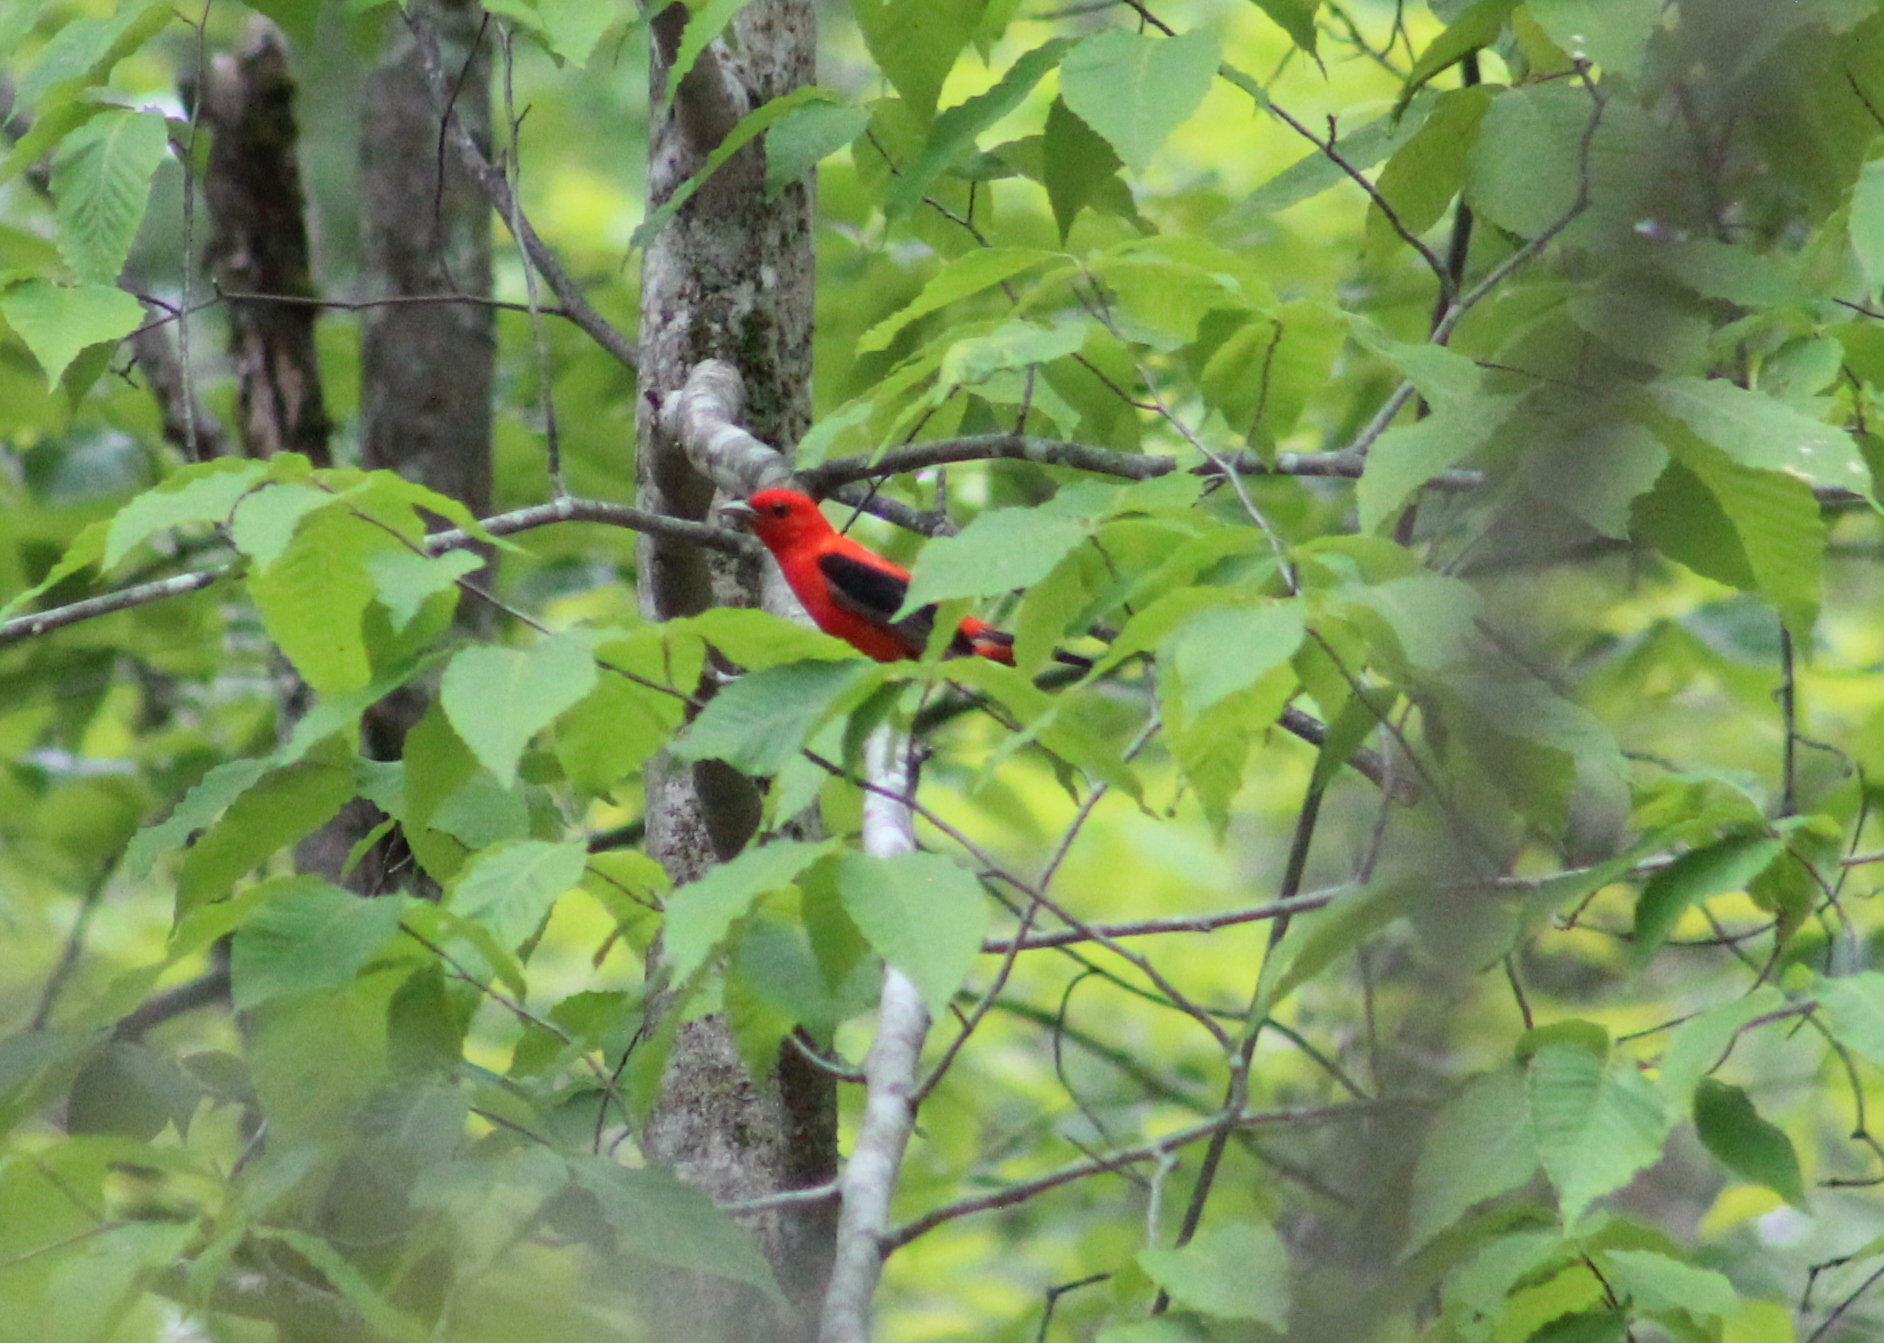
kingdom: Animalia
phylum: Chordata
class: Aves
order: Passeriformes
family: Cardinalidae
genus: Piranga
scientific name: Piranga olivacea
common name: Scarlet tanager
